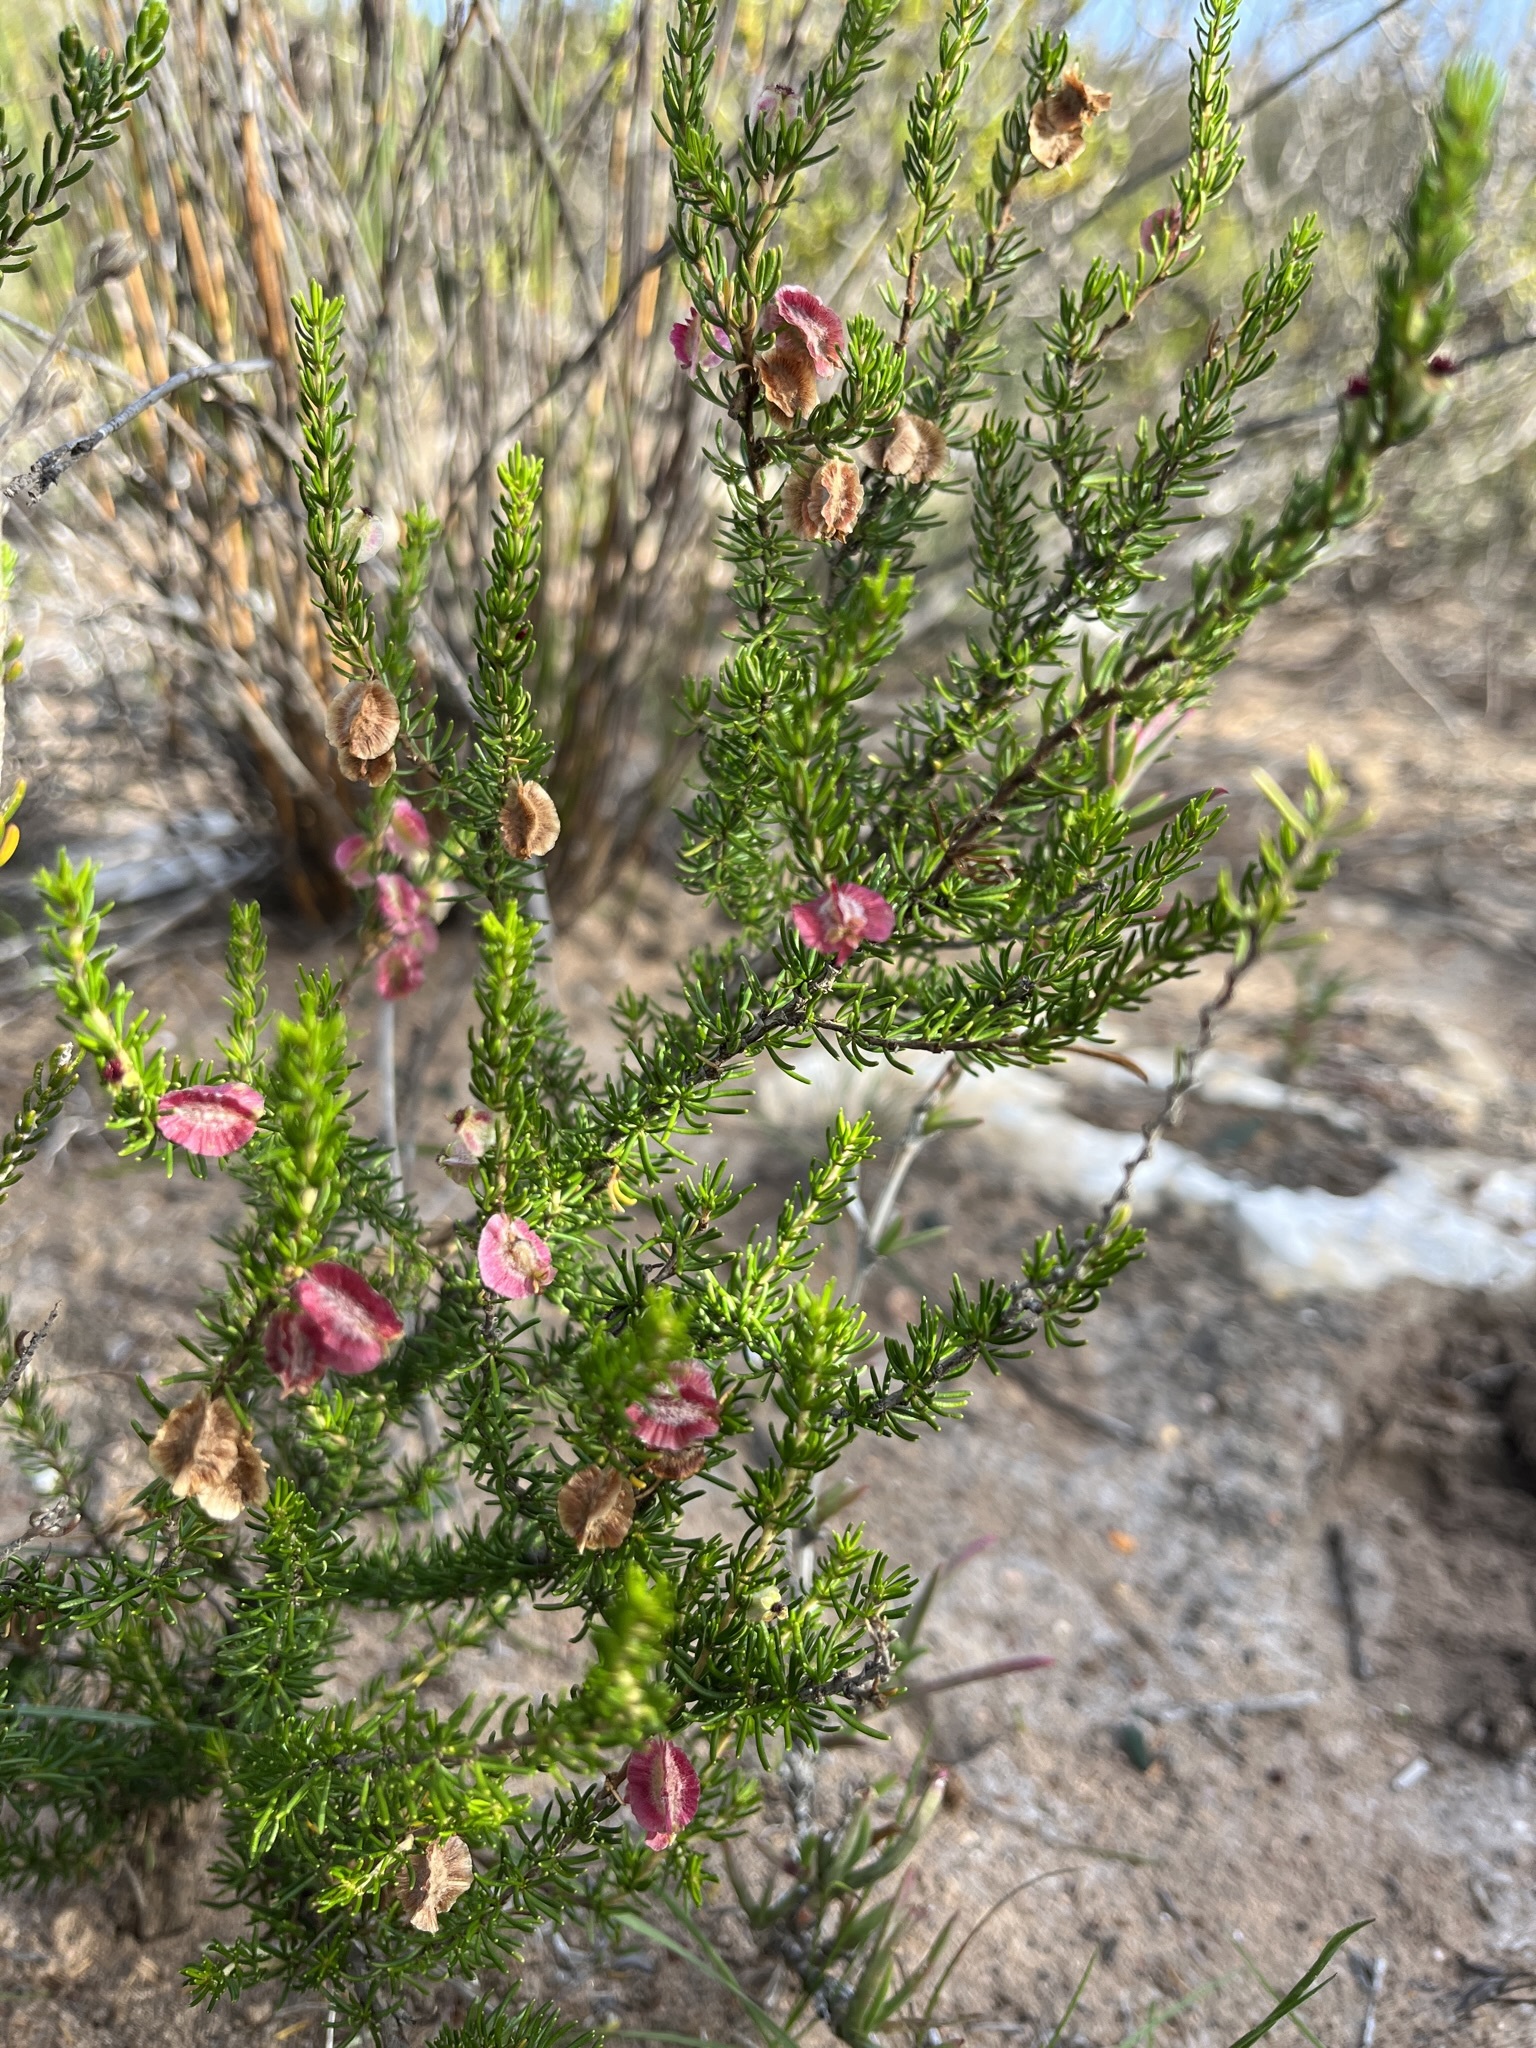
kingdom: Plantae
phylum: Tracheophyta
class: Magnoliopsida
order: Rosales
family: Rosaceae
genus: Cliffortia
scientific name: Cliffortia burgersii
